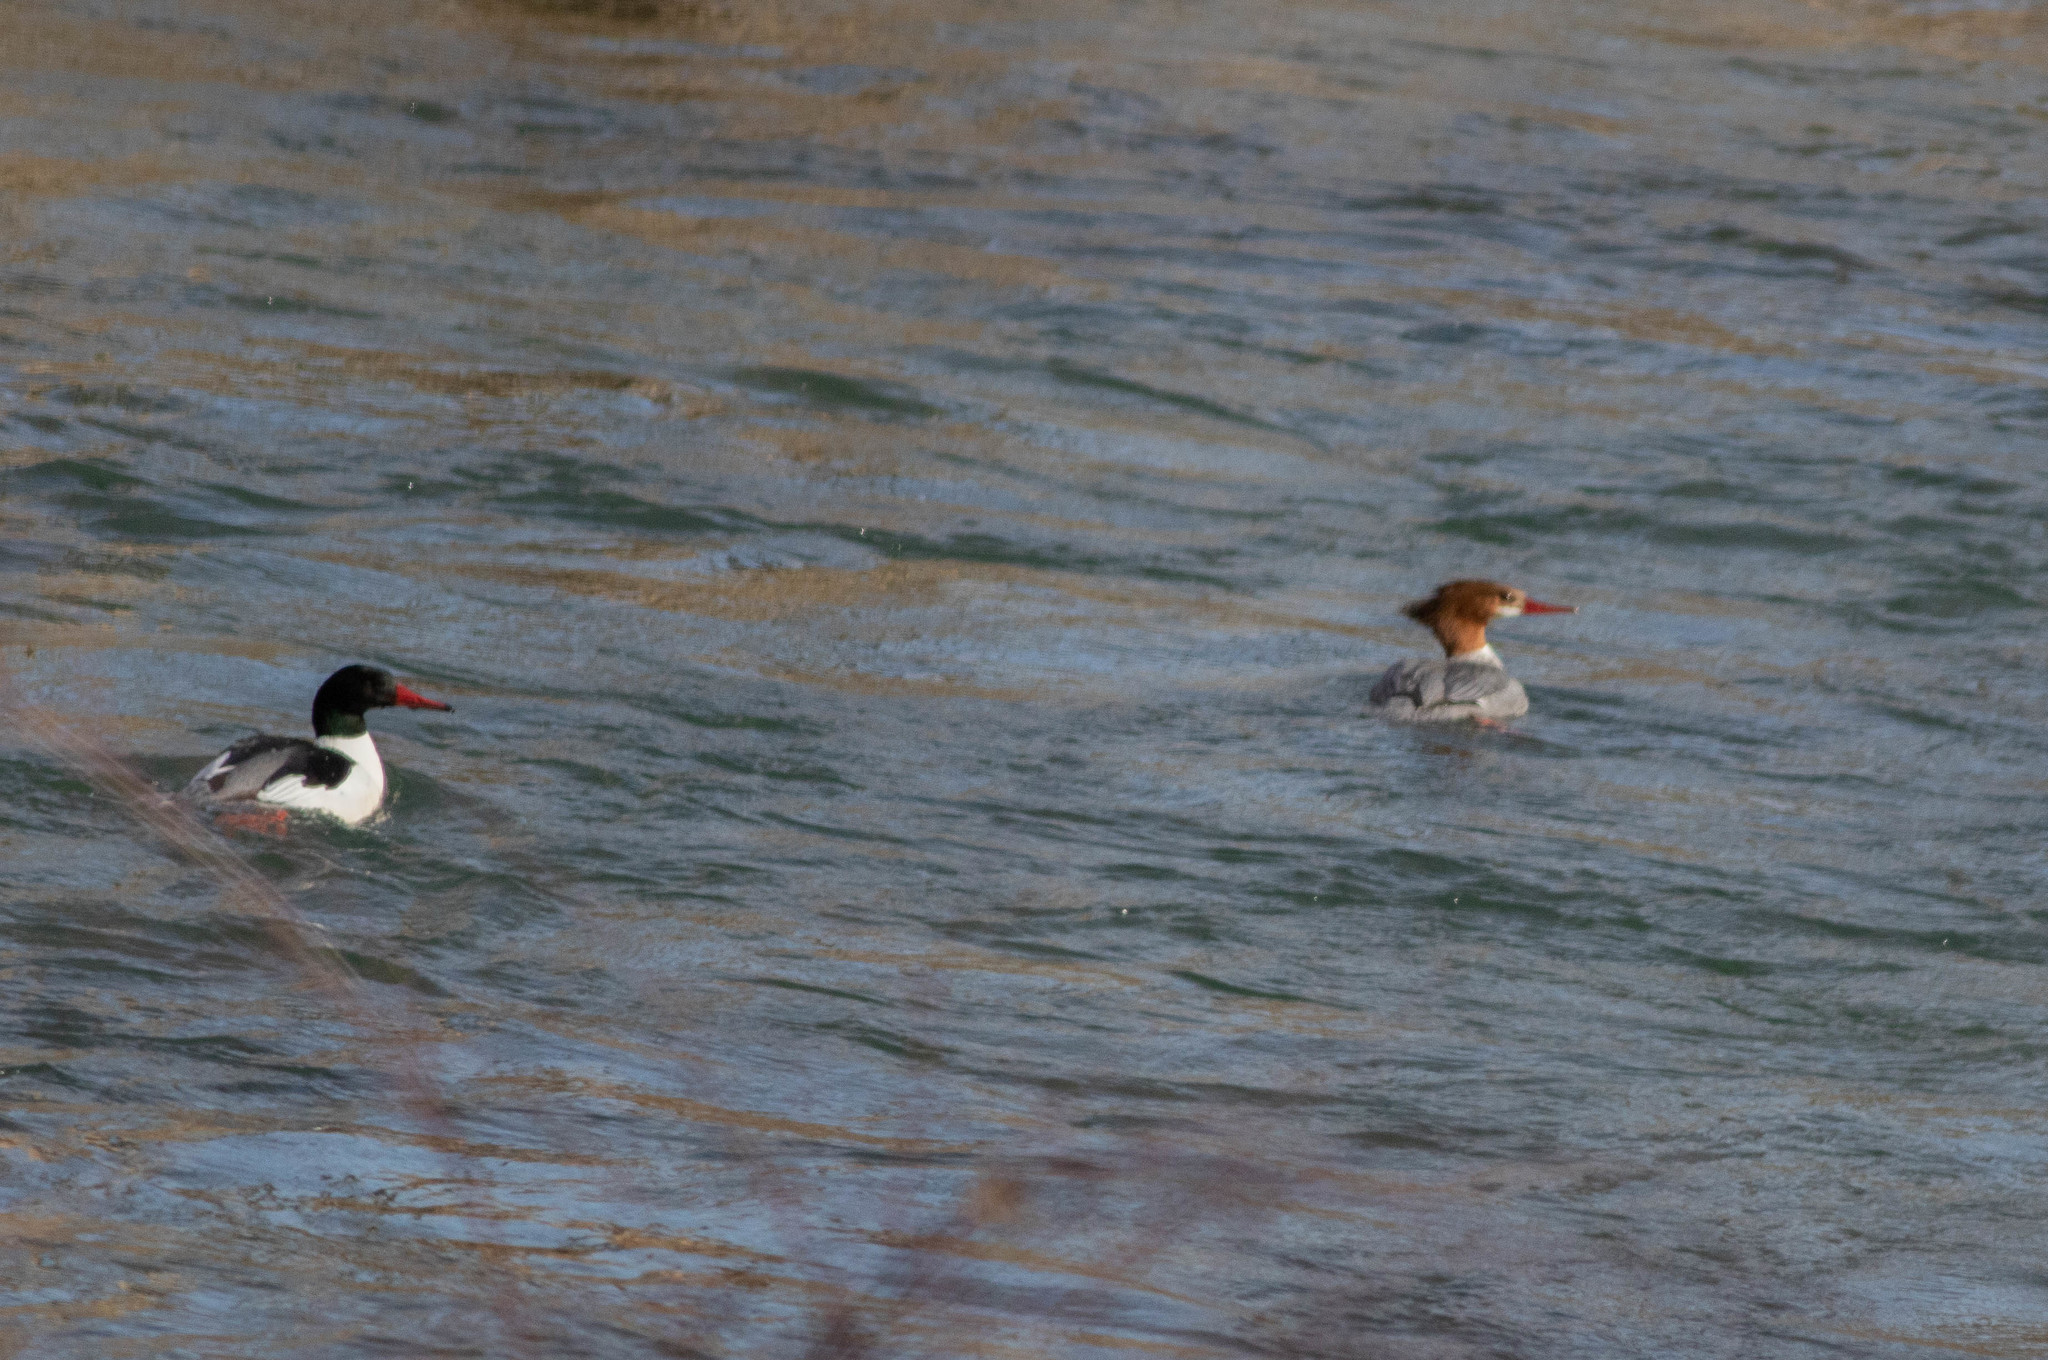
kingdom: Animalia
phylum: Chordata
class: Aves
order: Anseriformes
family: Anatidae
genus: Mergus
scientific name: Mergus merganser
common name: Common merganser
